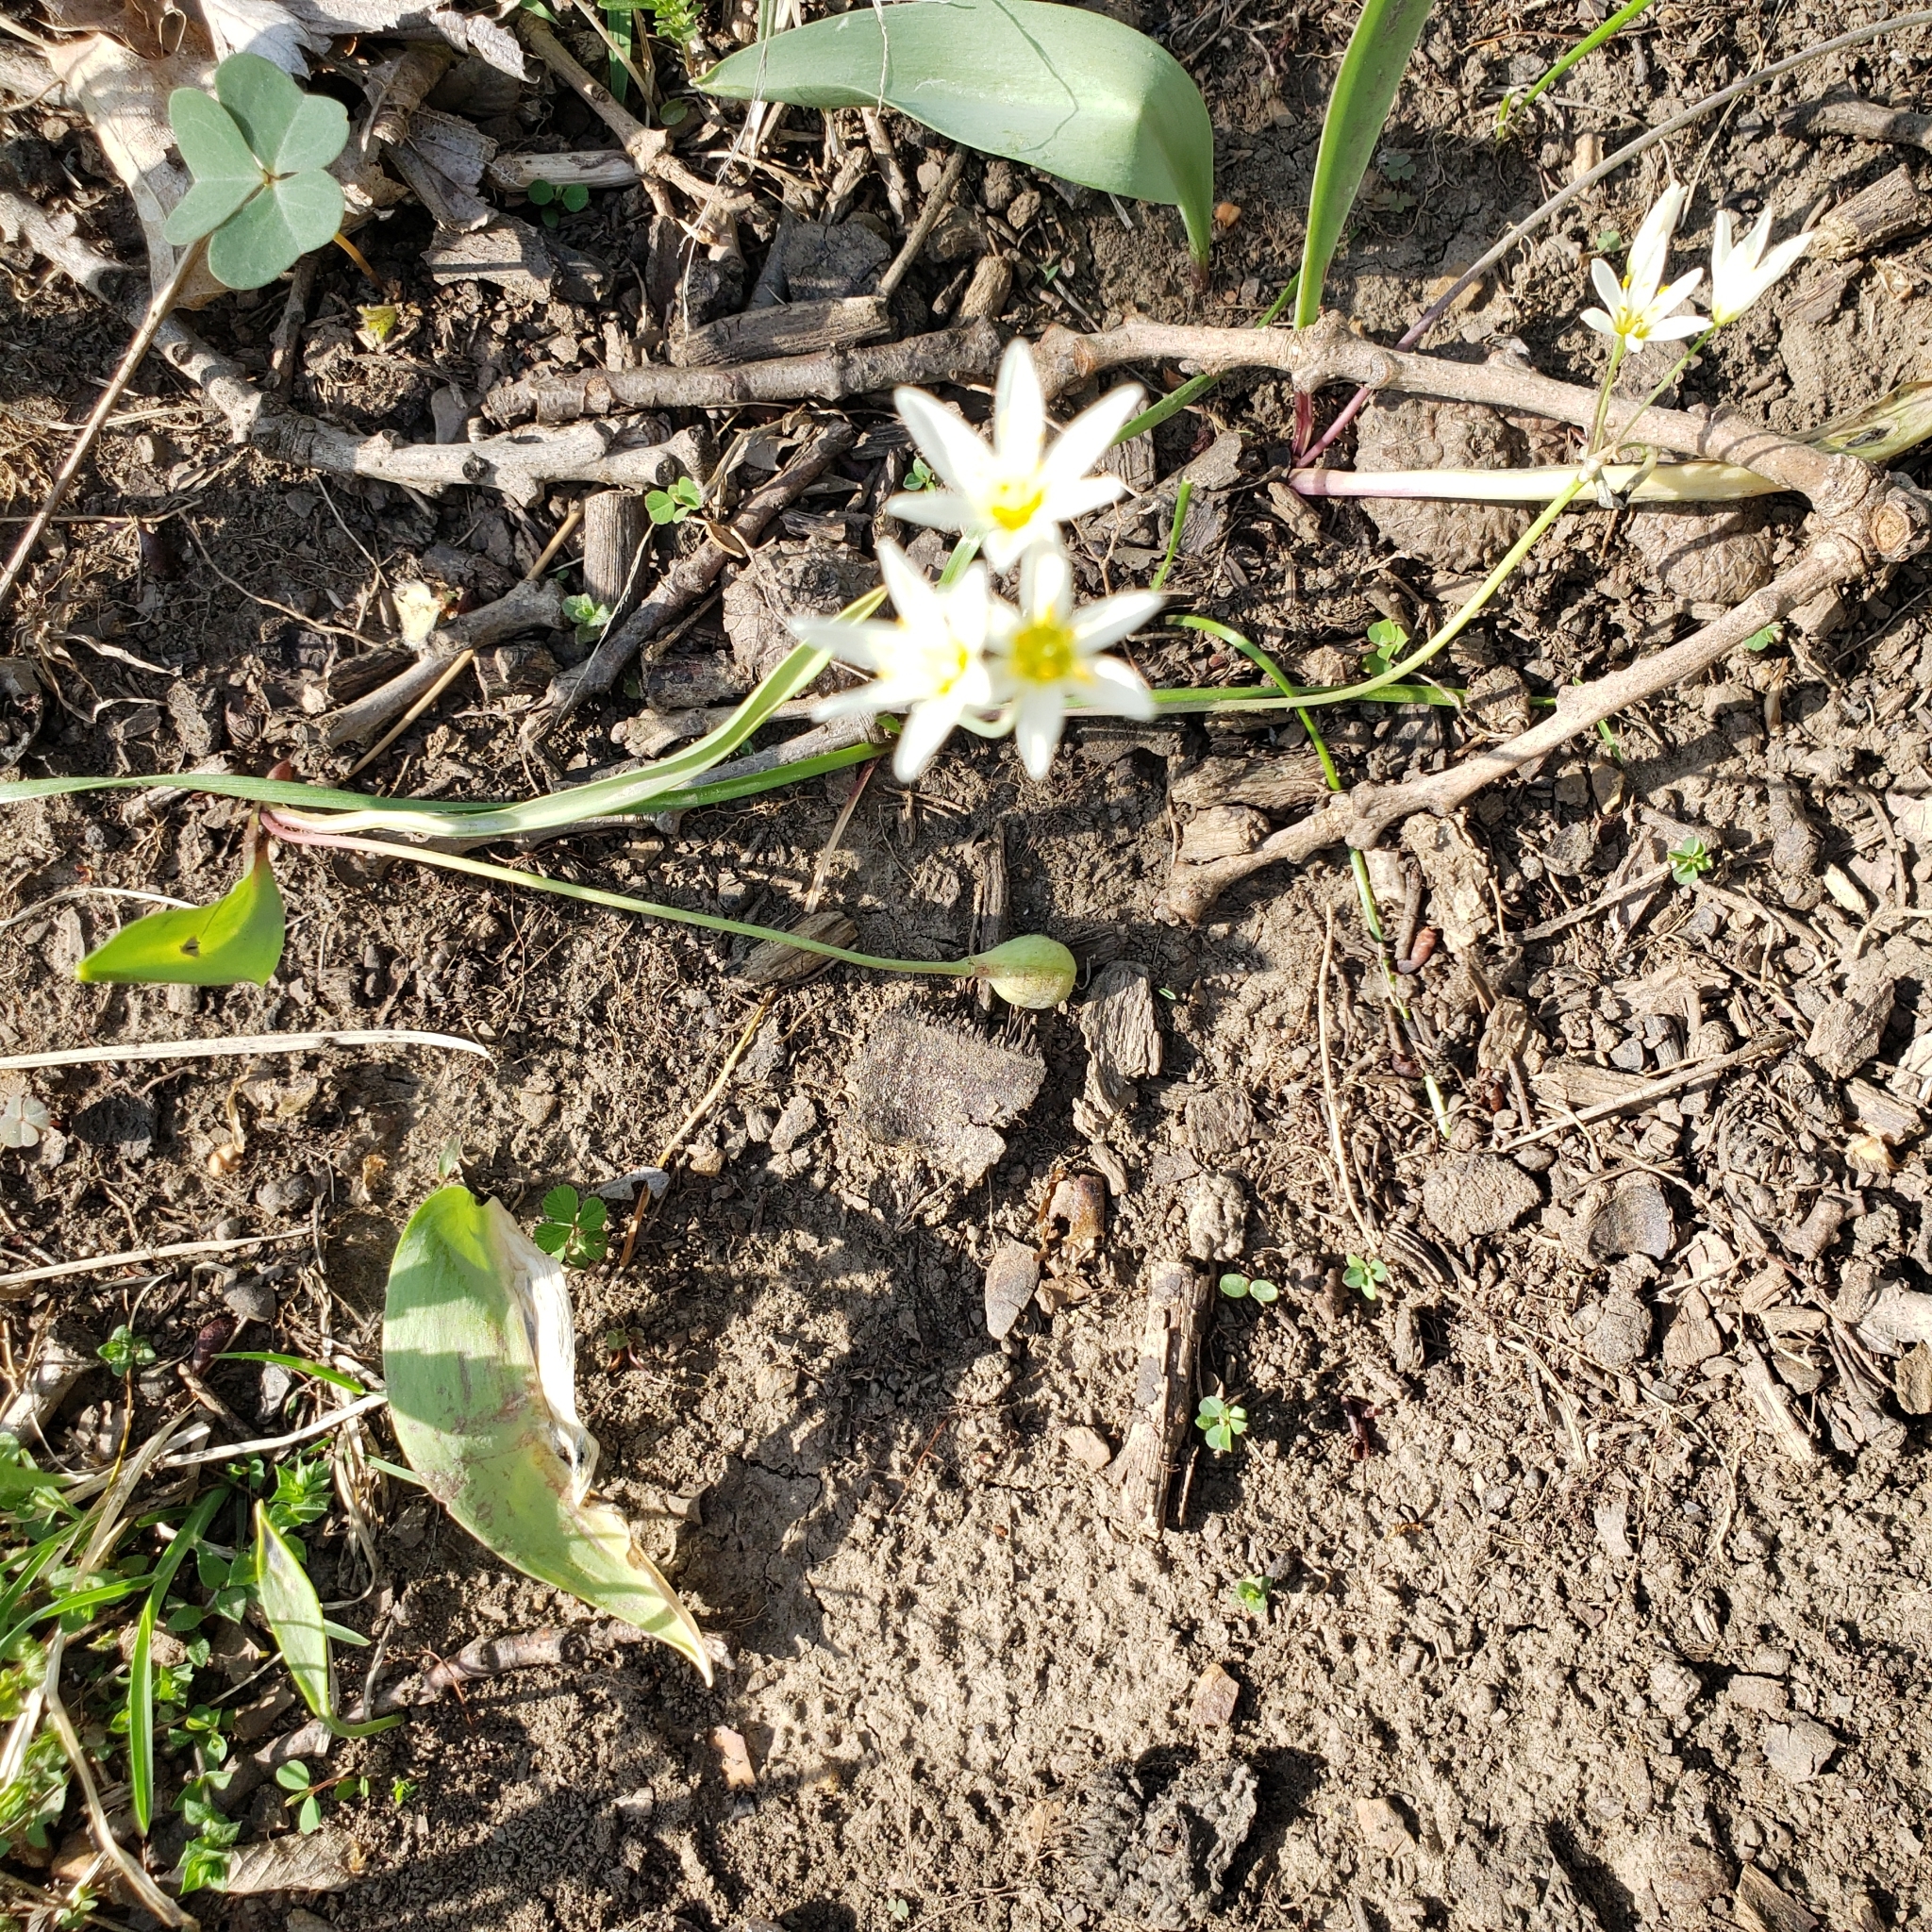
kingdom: Plantae
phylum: Tracheophyta
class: Liliopsida
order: Asparagales
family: Amaryllidaceae
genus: Nothoscordum
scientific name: Nothoscordum bivalve
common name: Crow-poison
